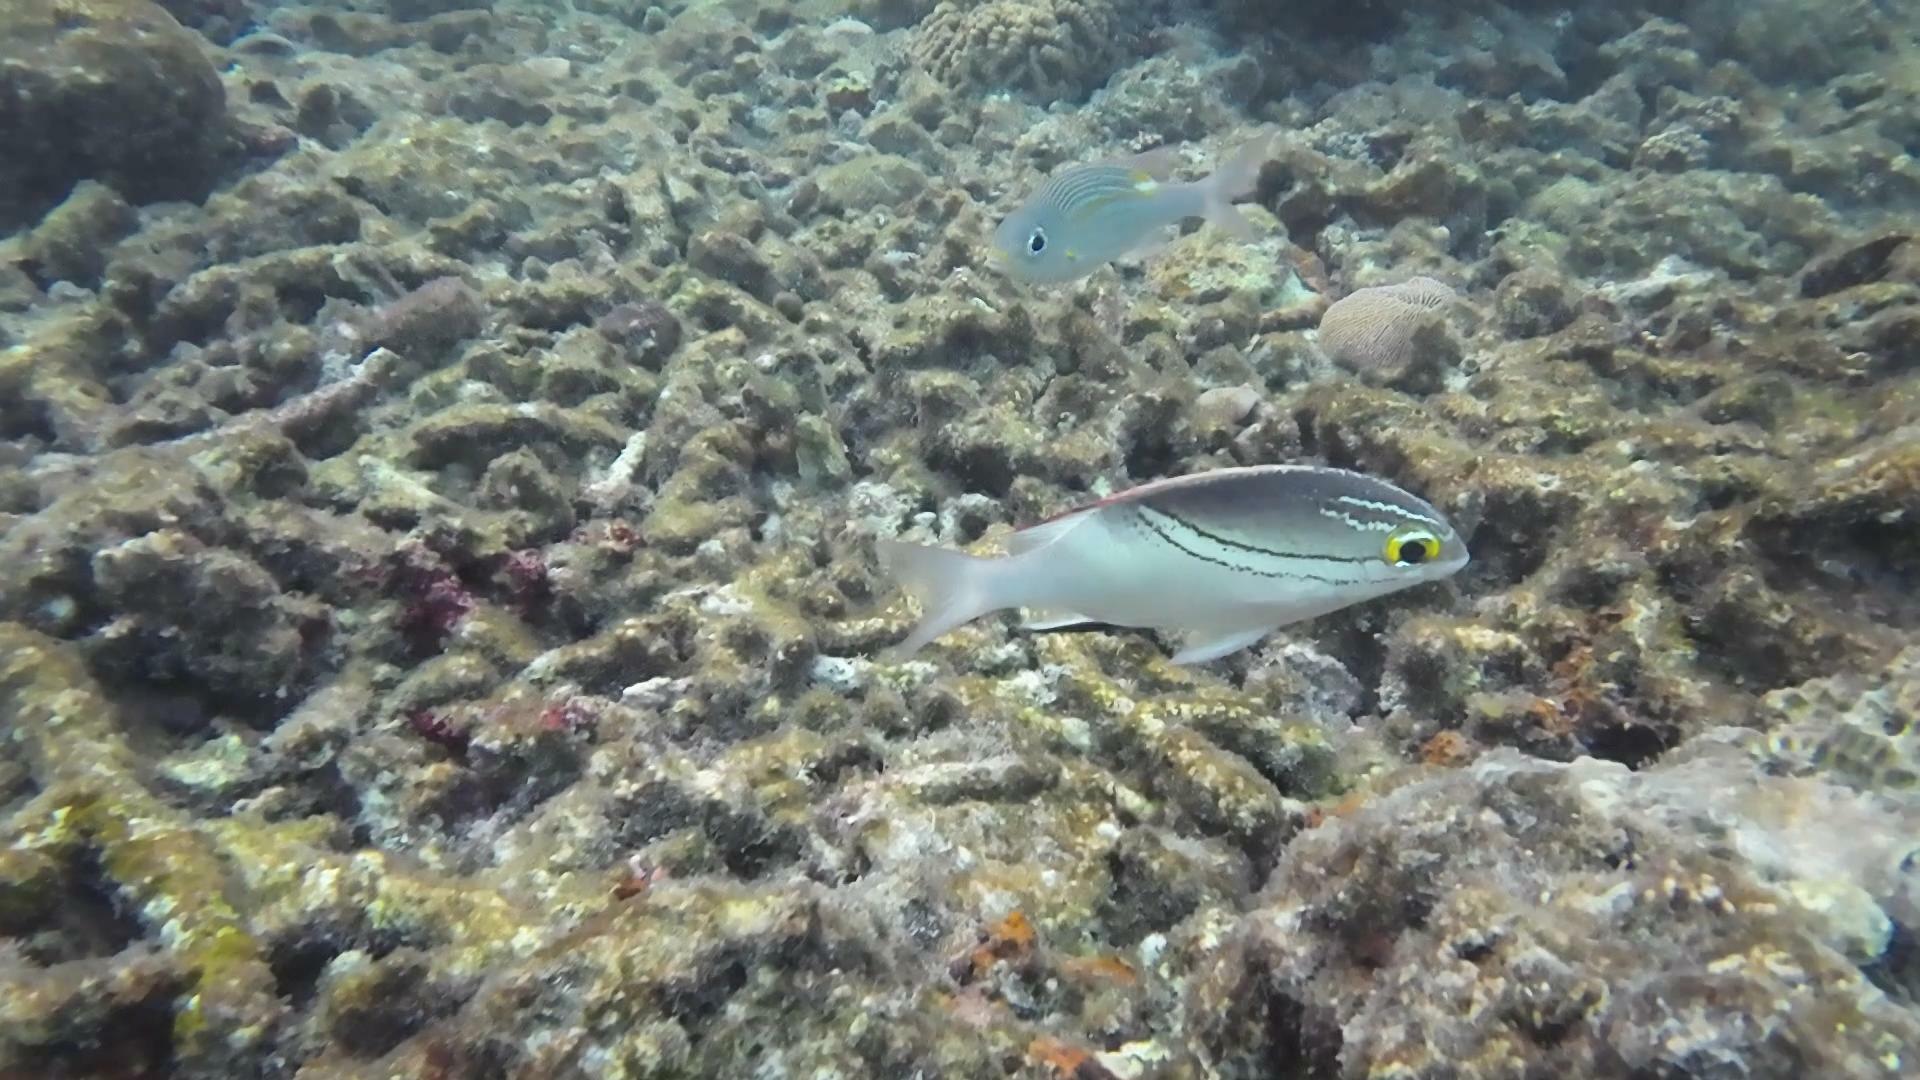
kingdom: Animalia
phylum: Chordata
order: Perciformes
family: Nemipteridae
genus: Scolopsis
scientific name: Scolopsis bilineata
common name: Two-lined monocle bream
